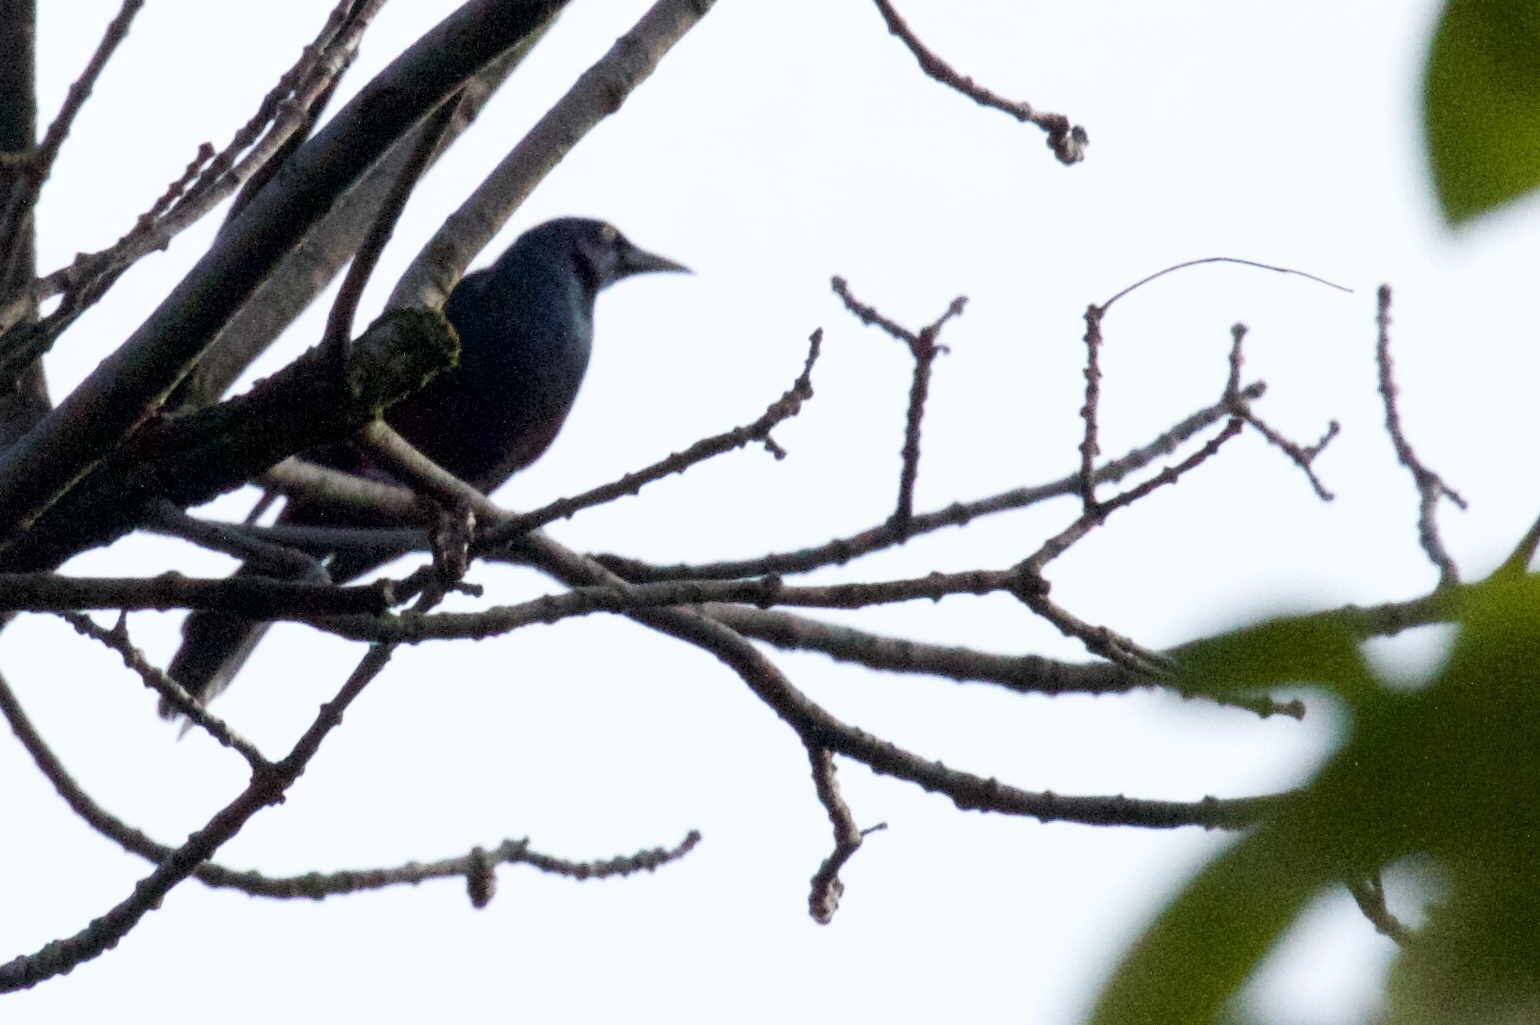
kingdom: Animalia
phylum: Chordata
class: Aves
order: Passeriformes
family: Icteridae
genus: Quiscalus
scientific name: Quiscalus quiscula
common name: Common grackle
